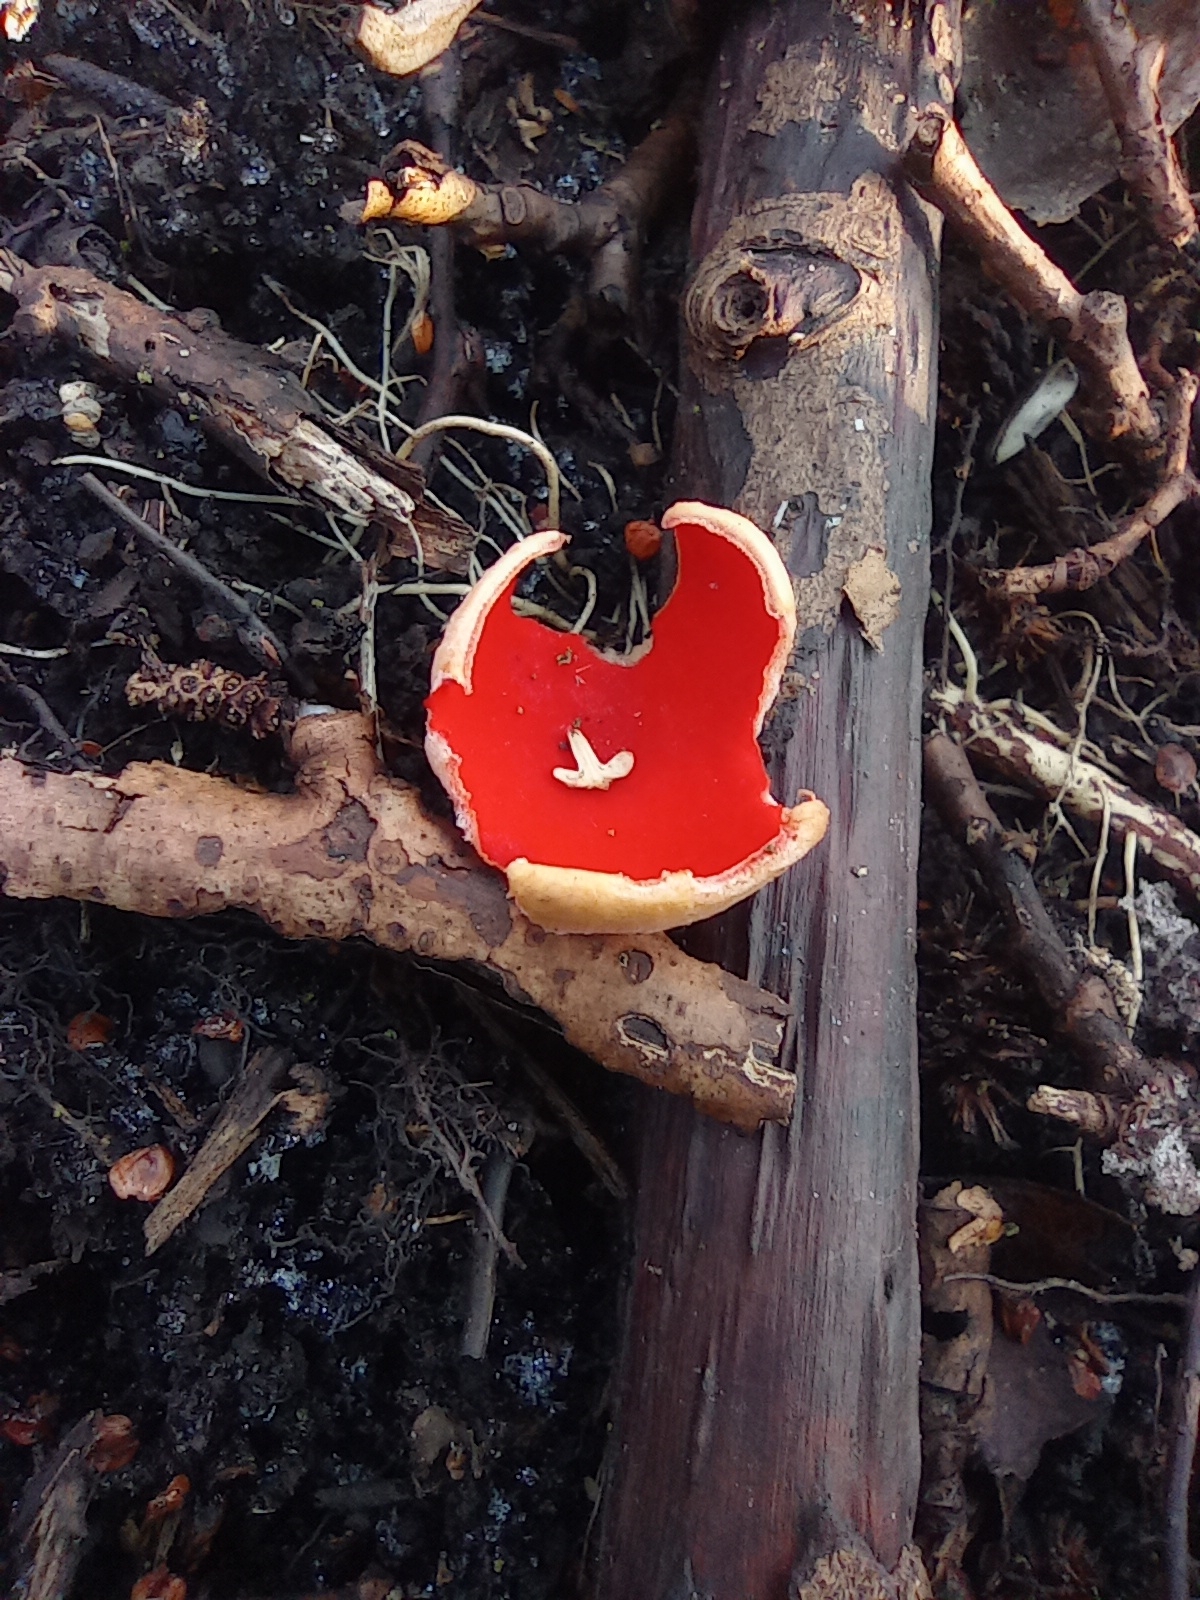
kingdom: Fungi
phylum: Ascomycota
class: Pezizomycetes
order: Pezizales
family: Sarcoscyphaceae
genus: Sarcoscypha
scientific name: Sarcoscypha
